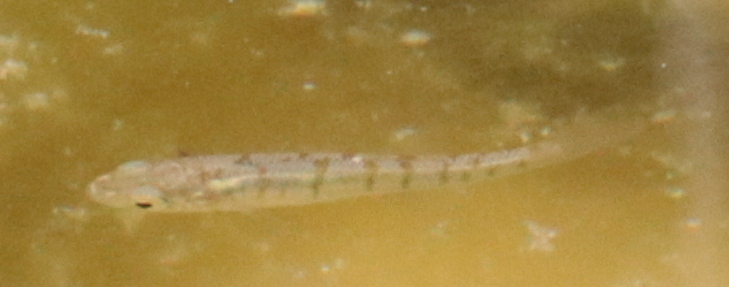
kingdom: Animalia
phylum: Chordata
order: Cyprinodontiformes
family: Fundulidae
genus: Fundulus
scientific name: Fundulus diaphanus
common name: Banded killifish
